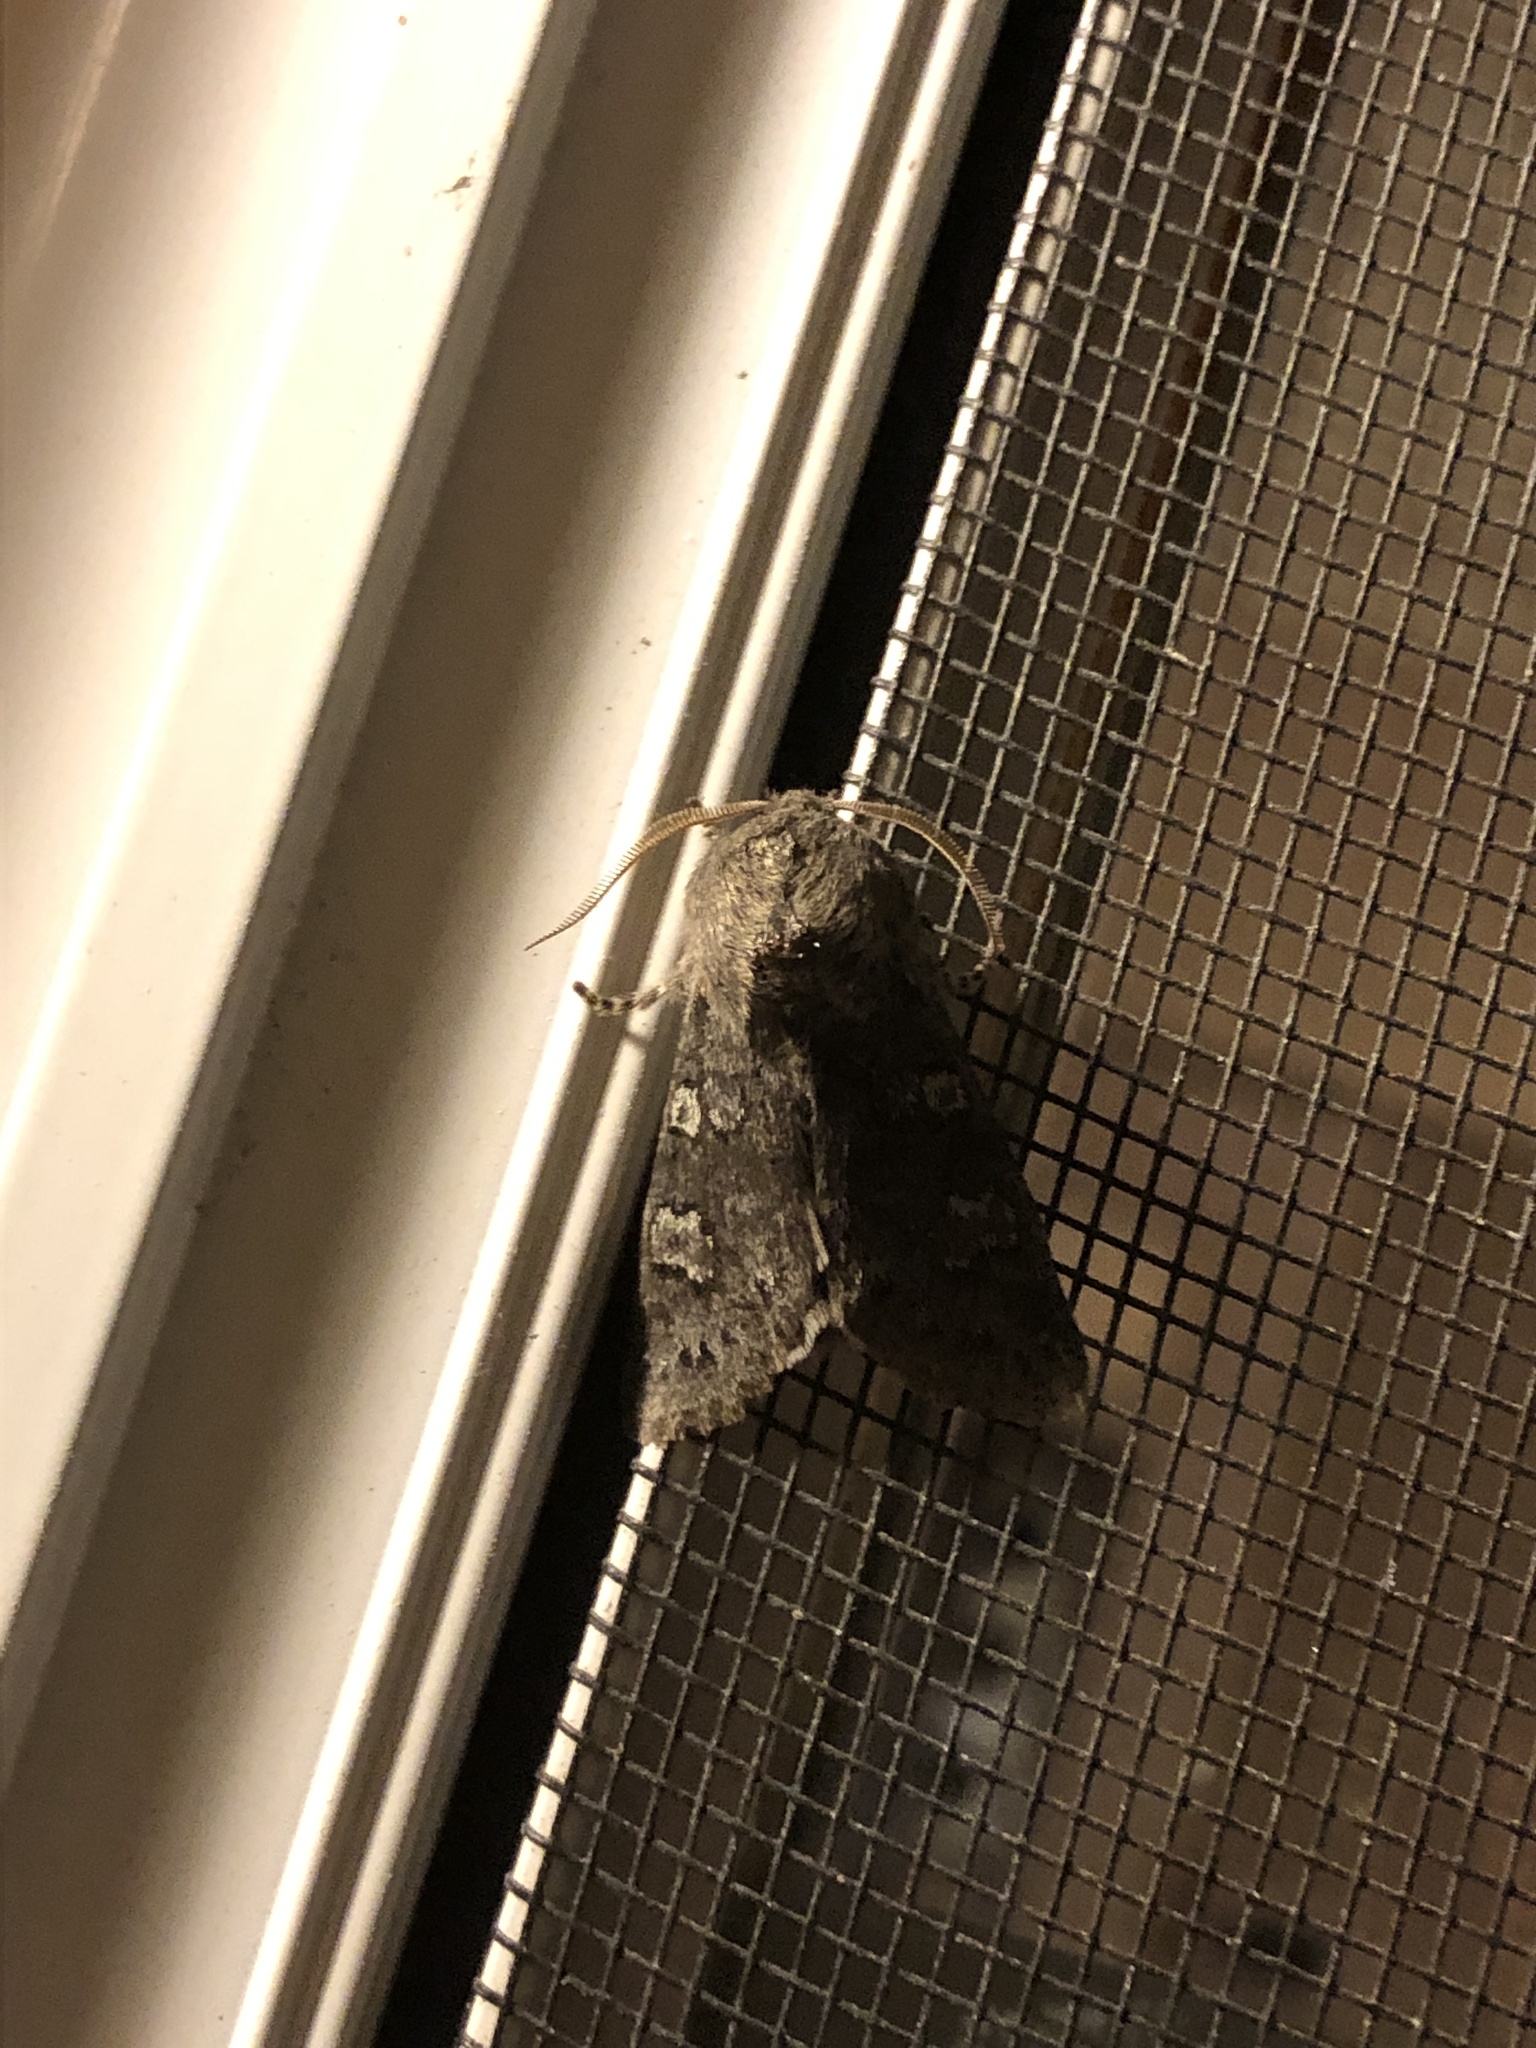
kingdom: Animalia
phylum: Arthropoda
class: Insecta
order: Lepidoptera
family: Noctuidae
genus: Psaphida
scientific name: Psaphida rolandi
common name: Roland's sallow
